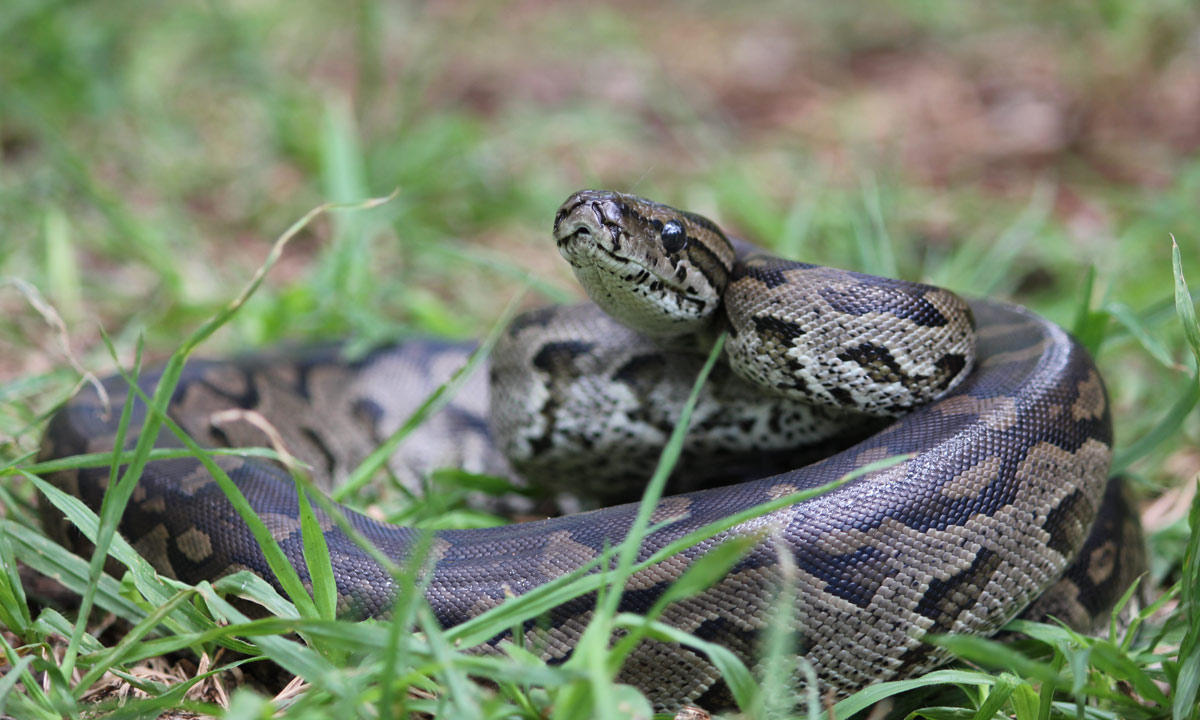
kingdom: Animalia
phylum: Chordata
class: Squamata
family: Pythonidae
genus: Python
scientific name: Python natalensis
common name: Southern african rock python
